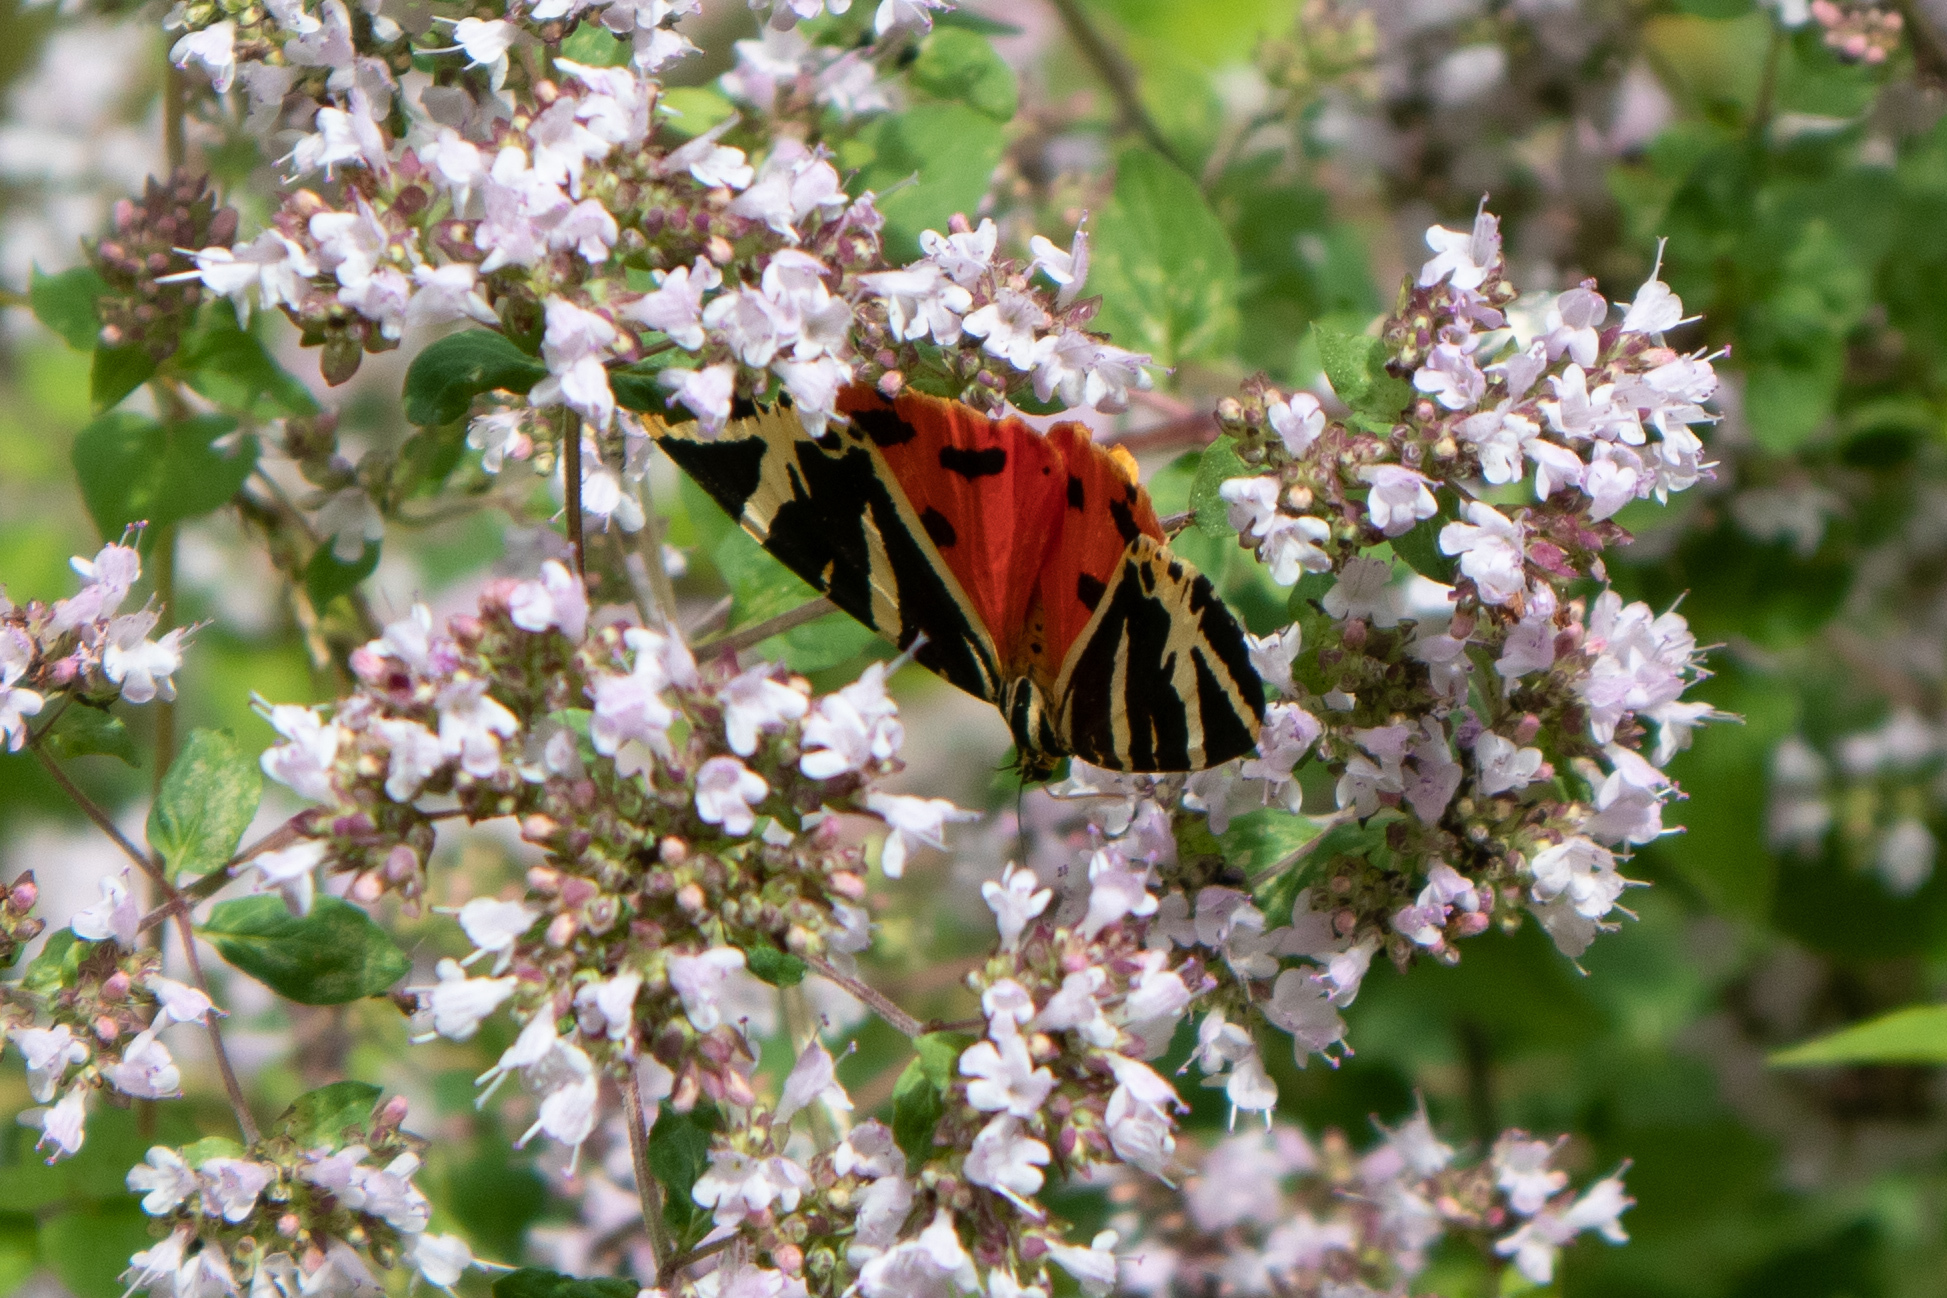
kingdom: Animalia
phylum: Arthropoda
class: Insecta
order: Lepidoptera
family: Erebidae
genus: Euplagia
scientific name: Euplagia quadripunctaria
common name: Jersey tiger
